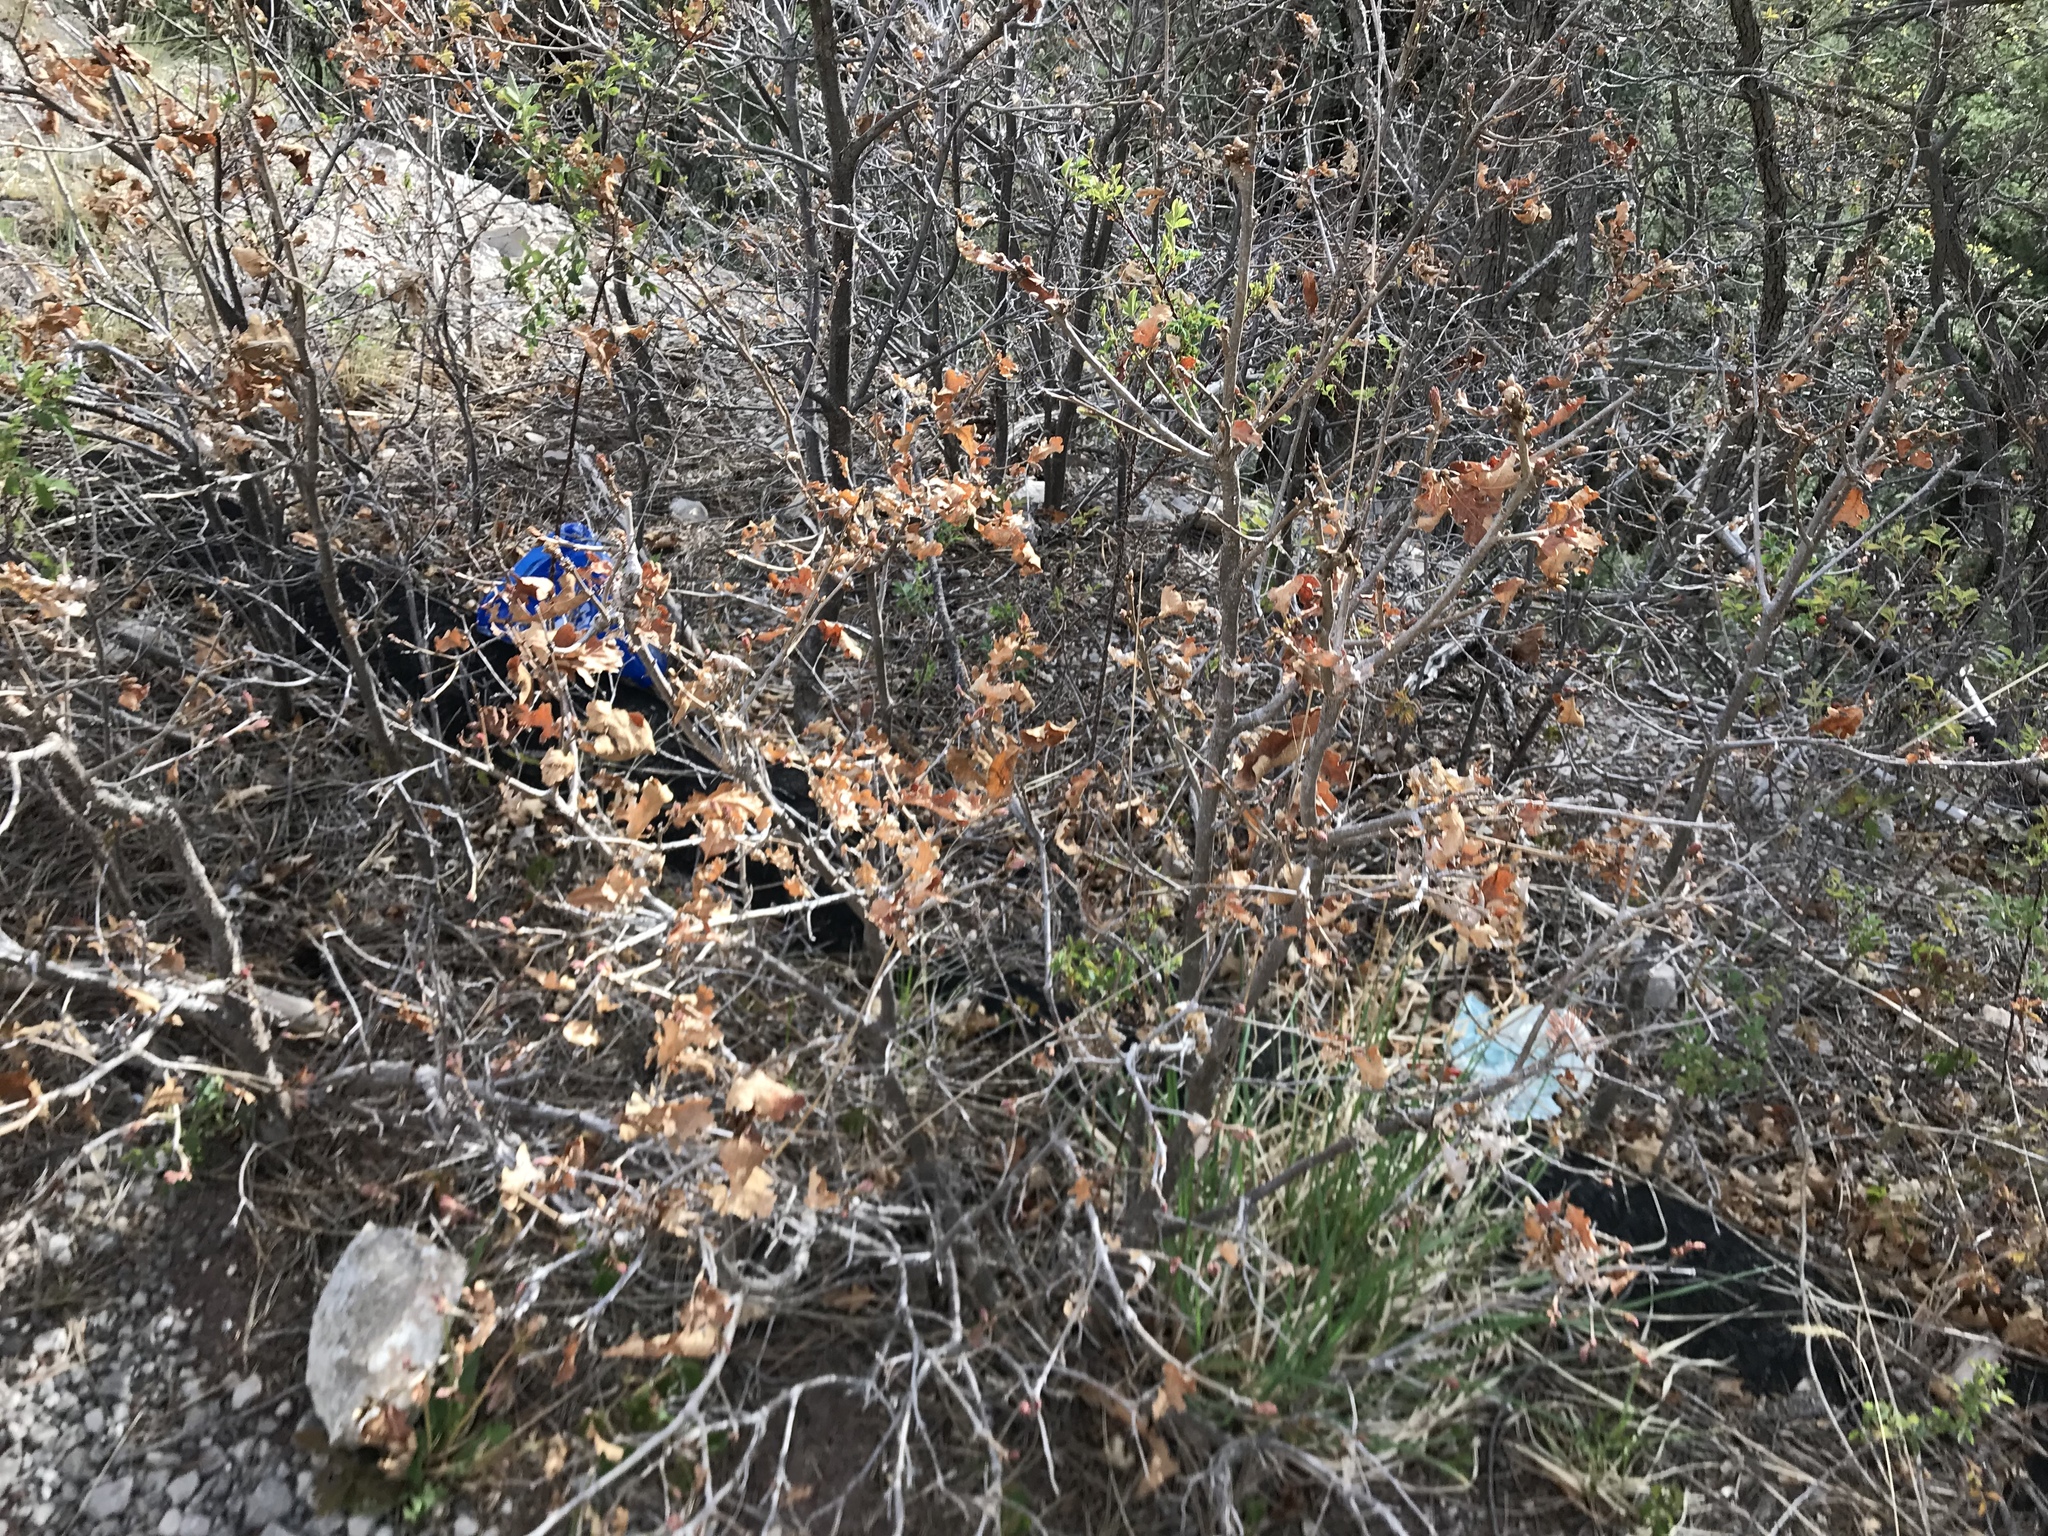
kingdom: Plantae
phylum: Tracheophyta
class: Magnoliopsida
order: Fagales
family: Fagaceae
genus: Quercus
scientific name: Quercus gambelii
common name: Gambel oak
